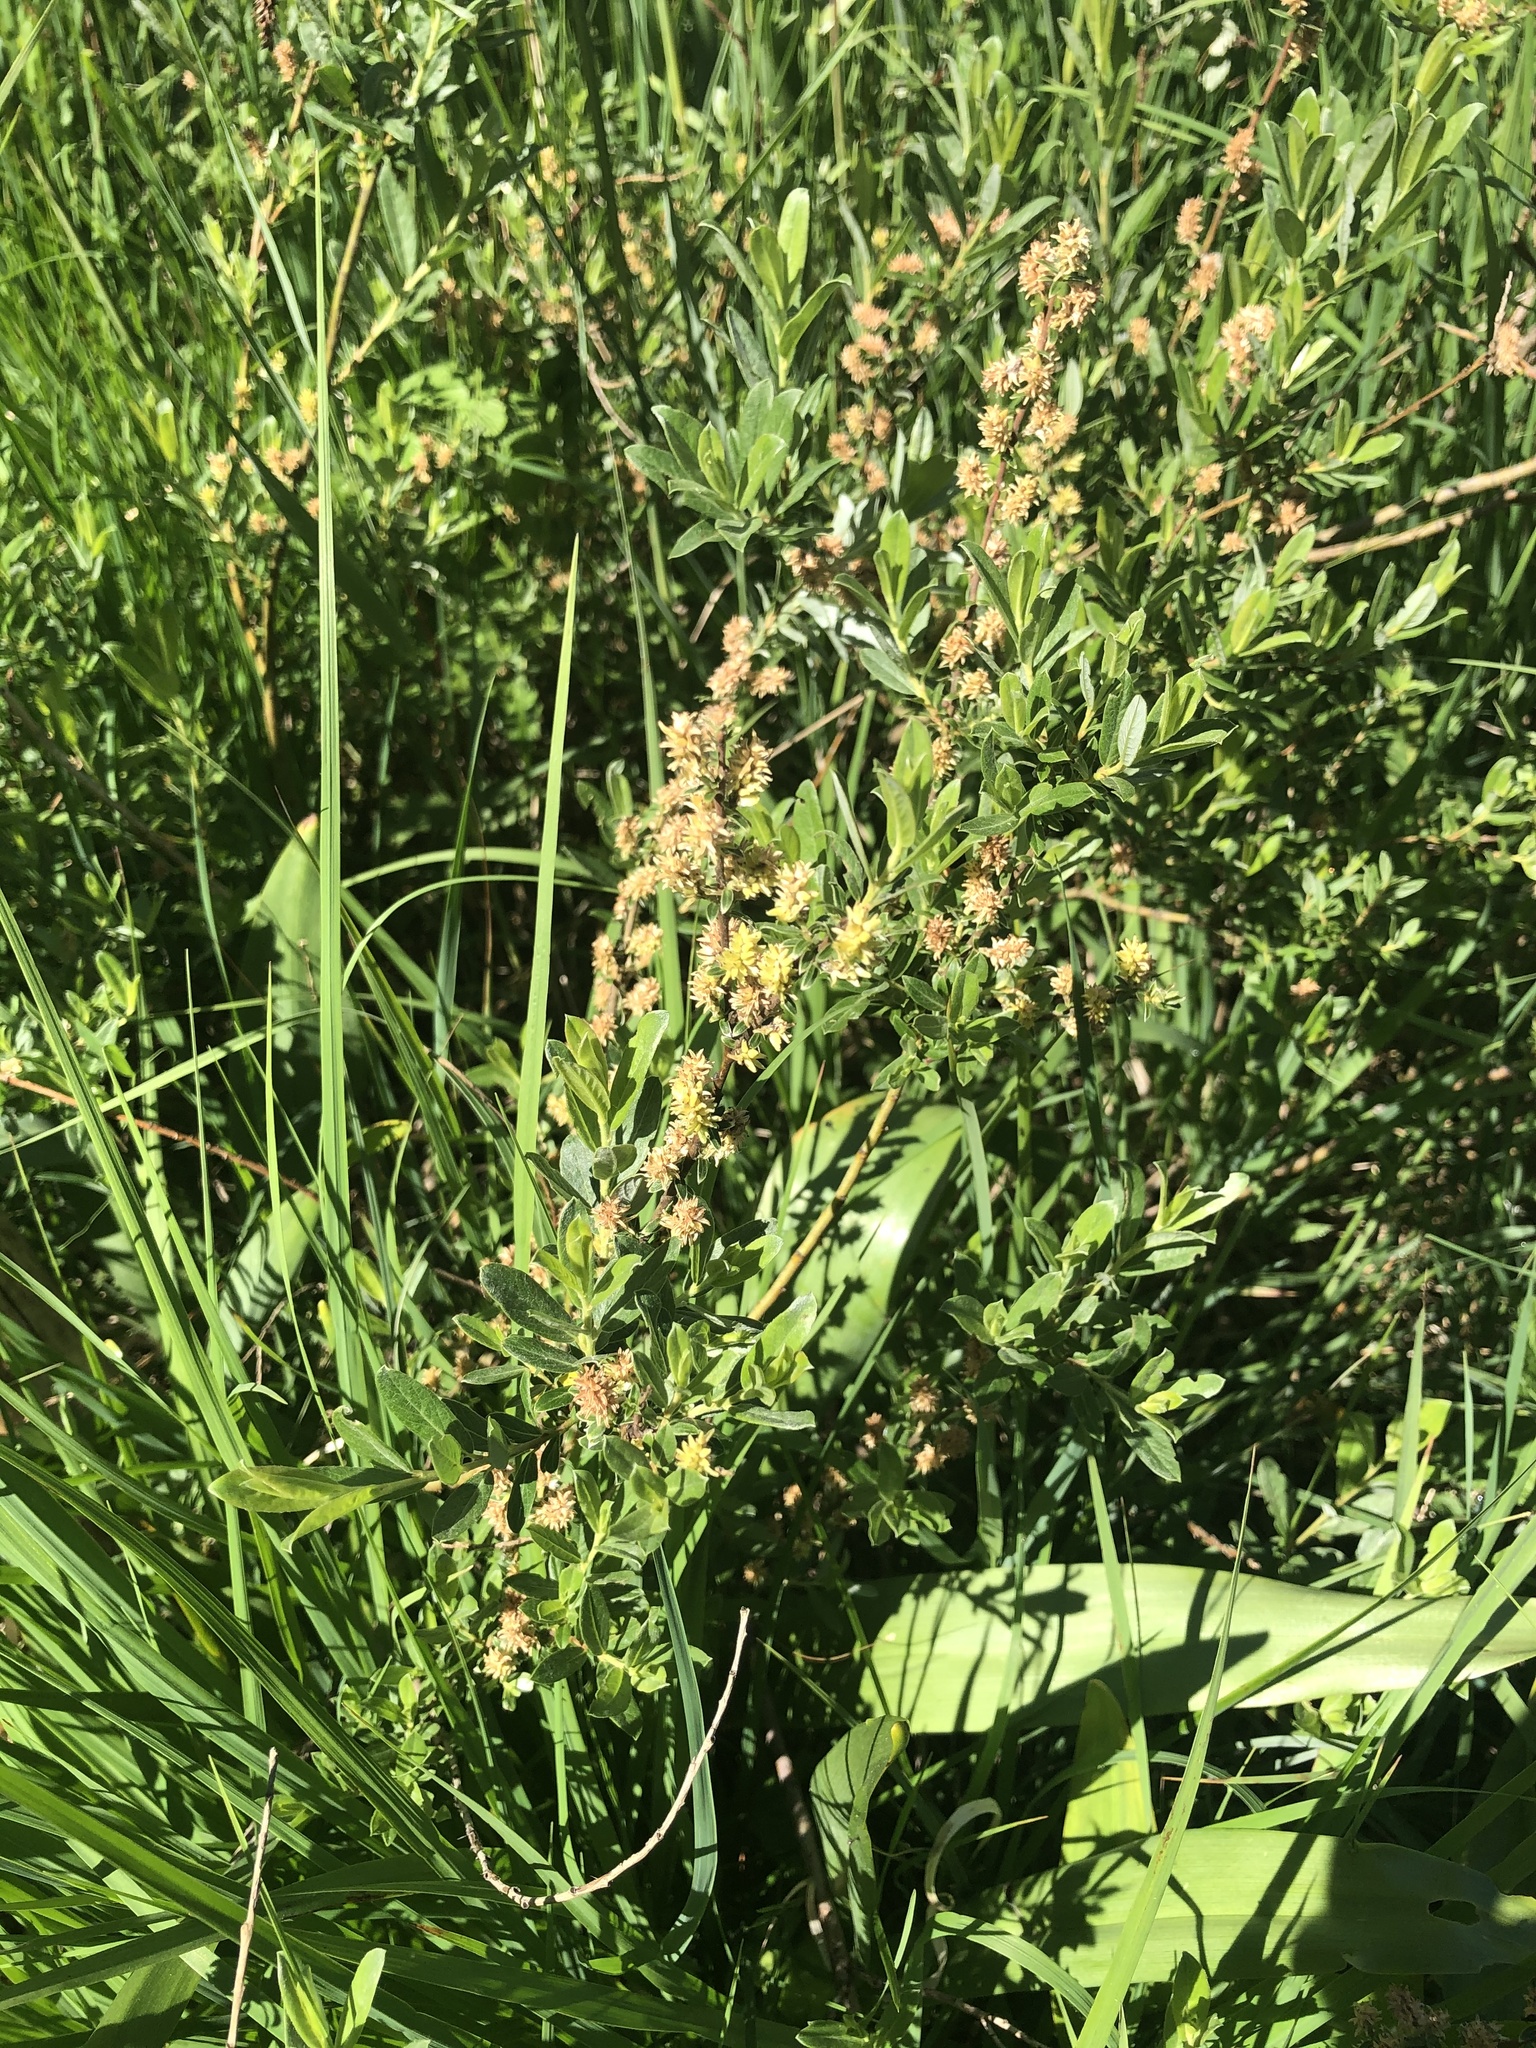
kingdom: Plantae
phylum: Tracheophyta
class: Magnoliopsida
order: Malpighiales
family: Salicaceae
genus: Salix
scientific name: Salix repens
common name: Creeping willow
